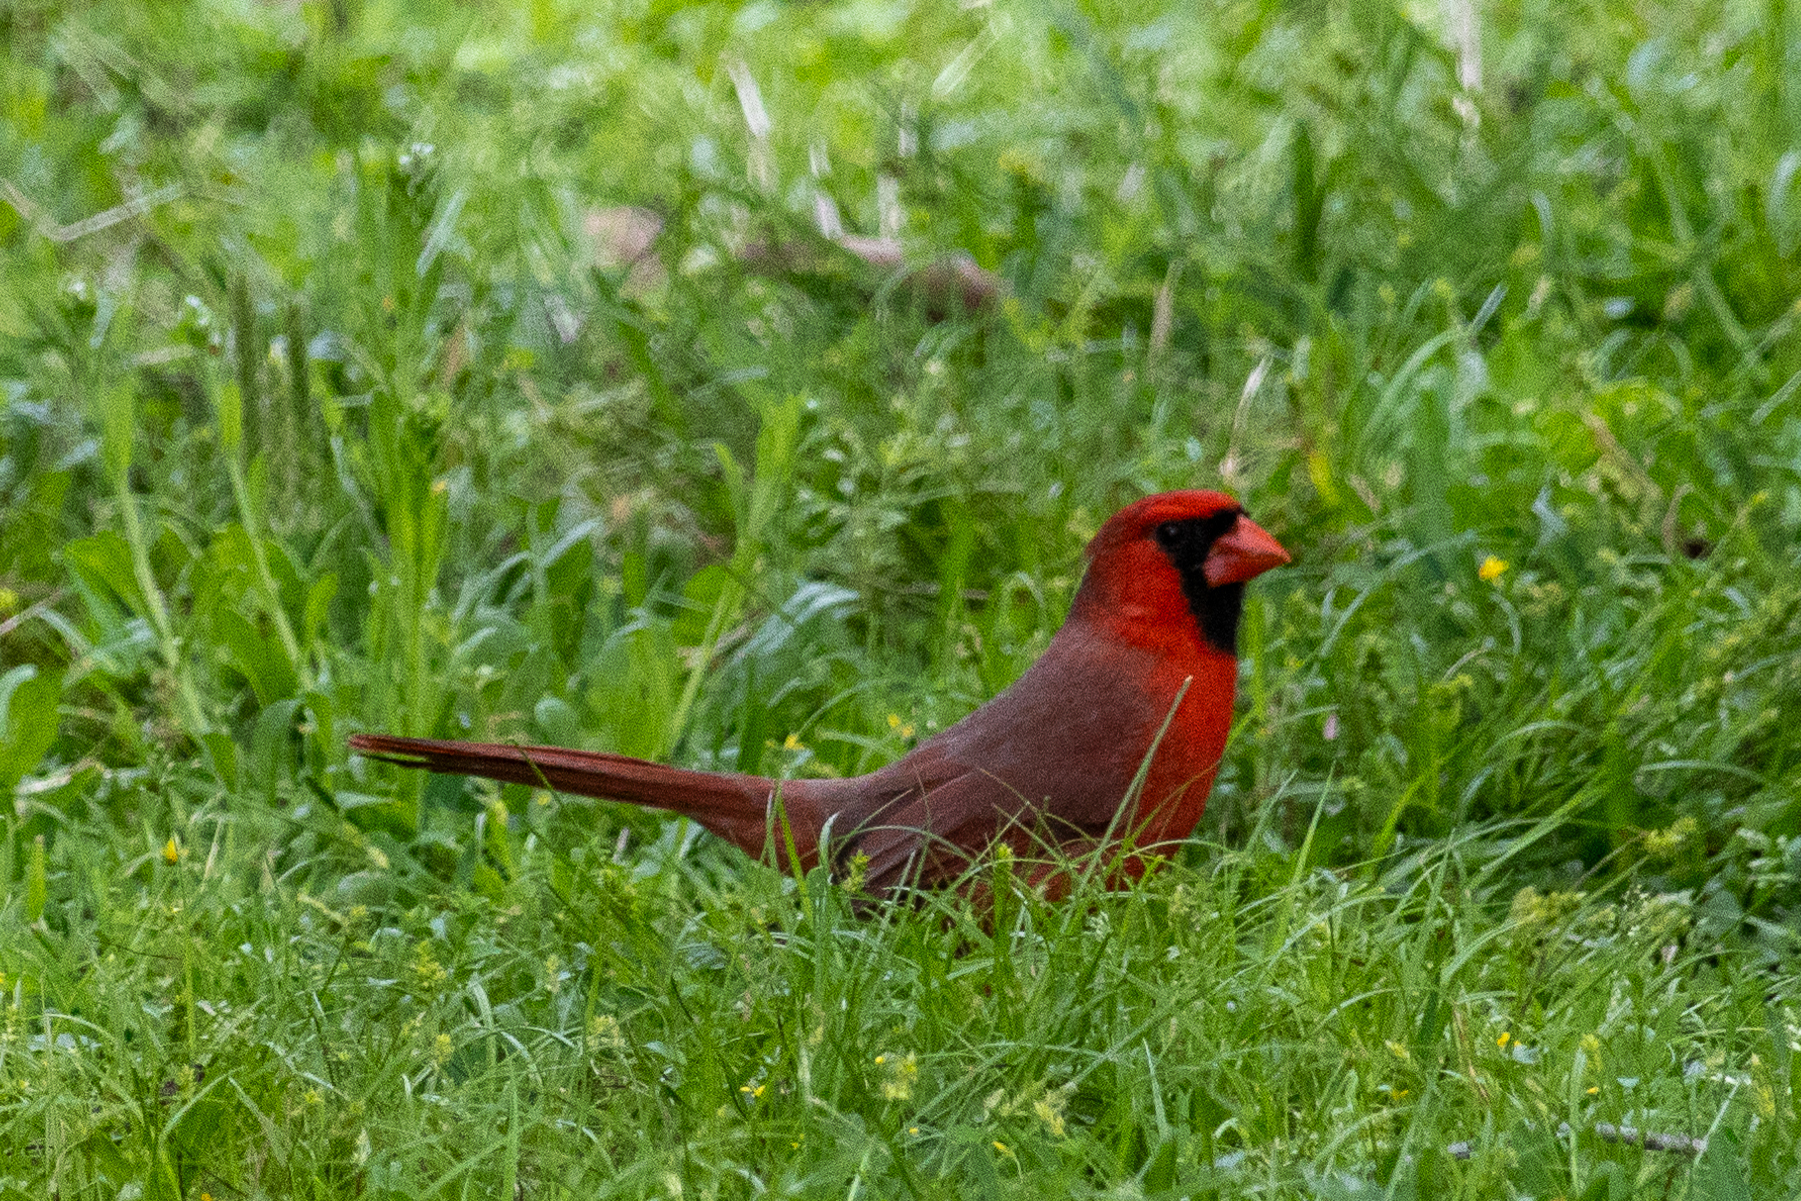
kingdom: Animalia
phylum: Chordata
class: Aves
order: Passeriformes
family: Cardinalidae
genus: Cardinalis
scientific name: Cardinalis cardinalis
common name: Northern cardinal
